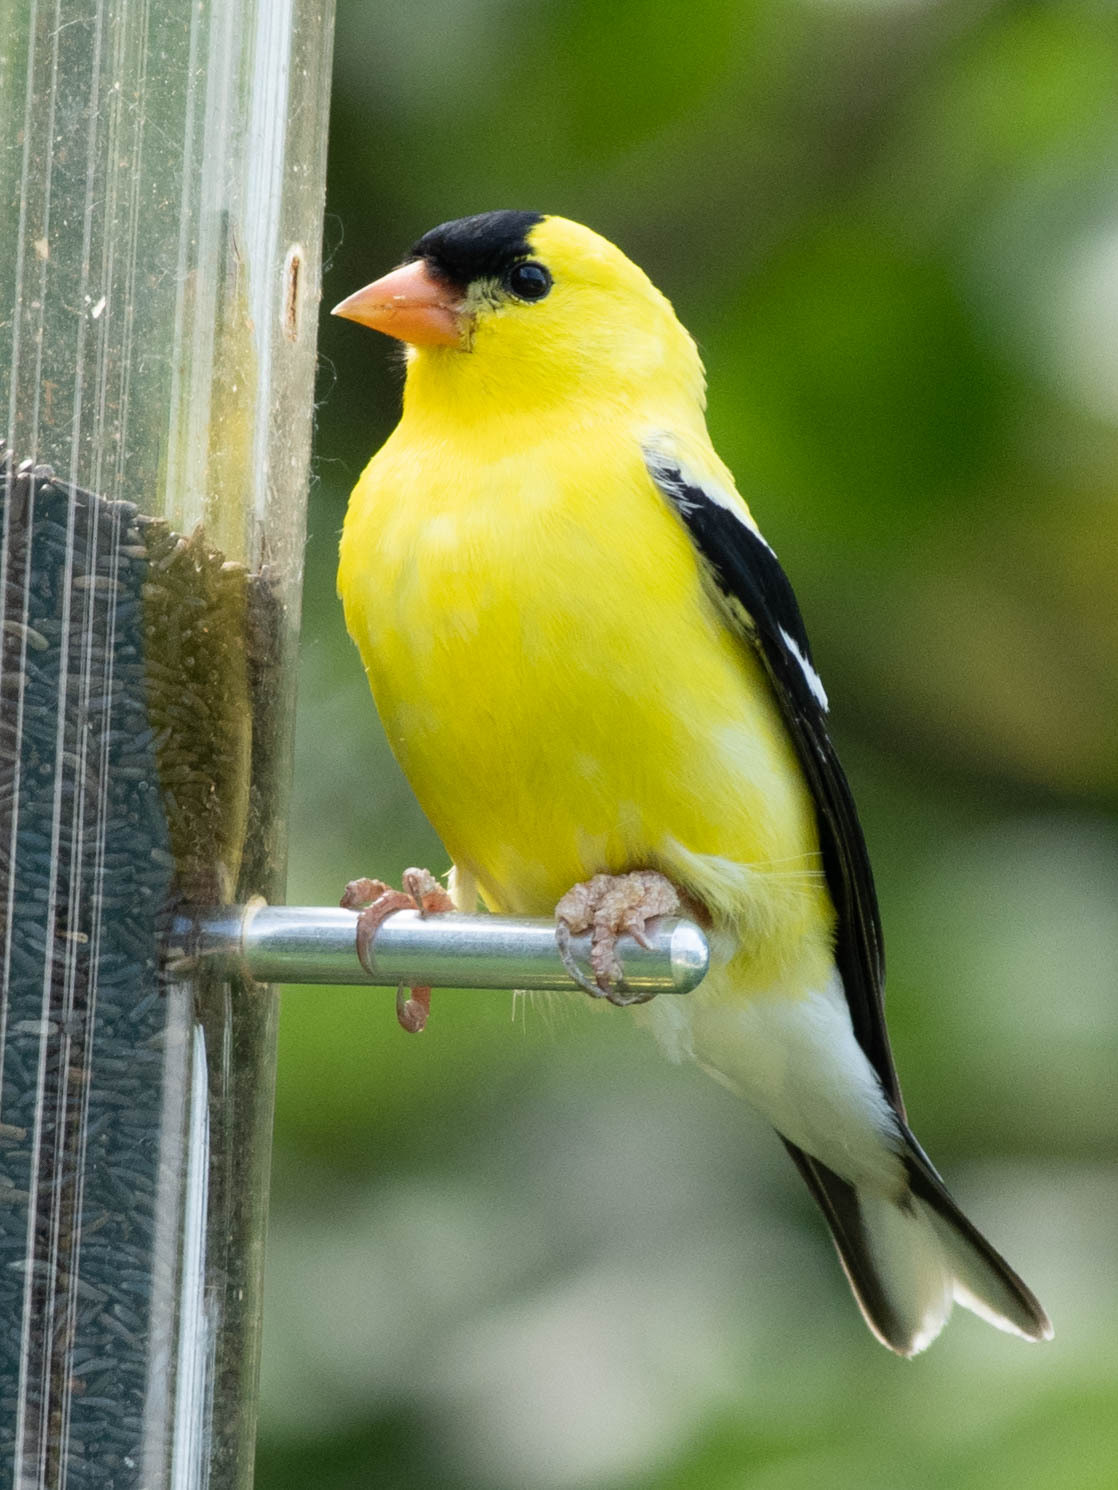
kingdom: Animalia
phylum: Chordata
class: Aves
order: Passeriformes
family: Fringillidae
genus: Spinus
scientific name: Spinus tristis
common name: American goldfinch
